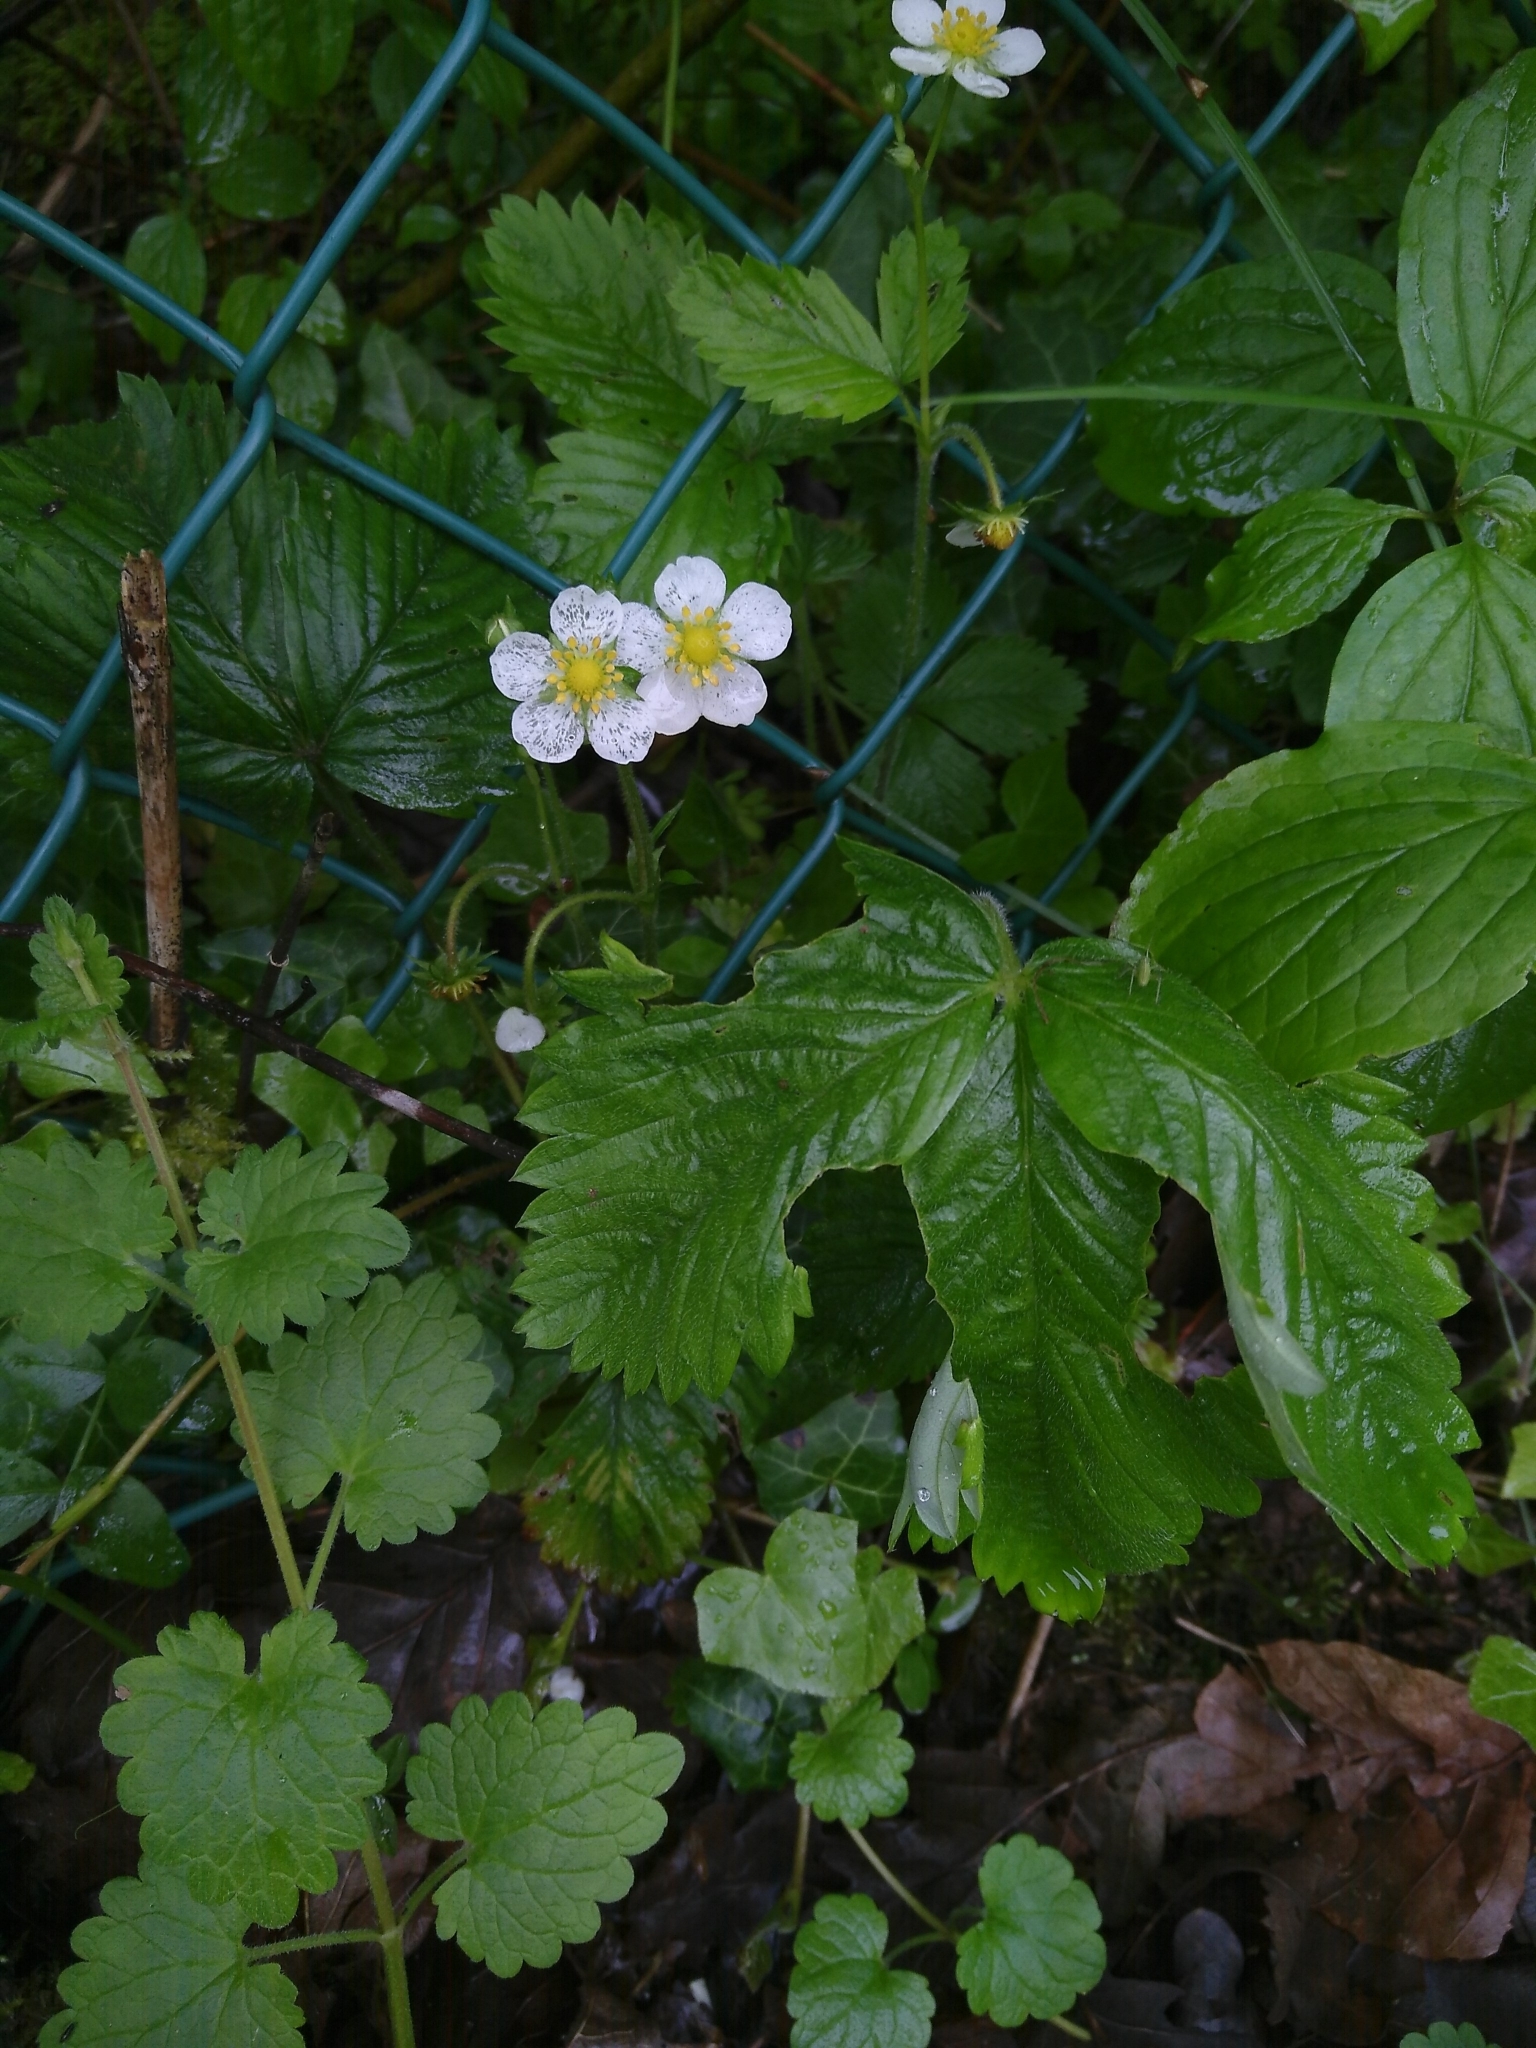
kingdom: Plantae
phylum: Tracheophyta
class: Magnoliopsida
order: Rosales
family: Rosaceae
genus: Fragaria
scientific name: Fragaria vesca
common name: Wild strawberry
